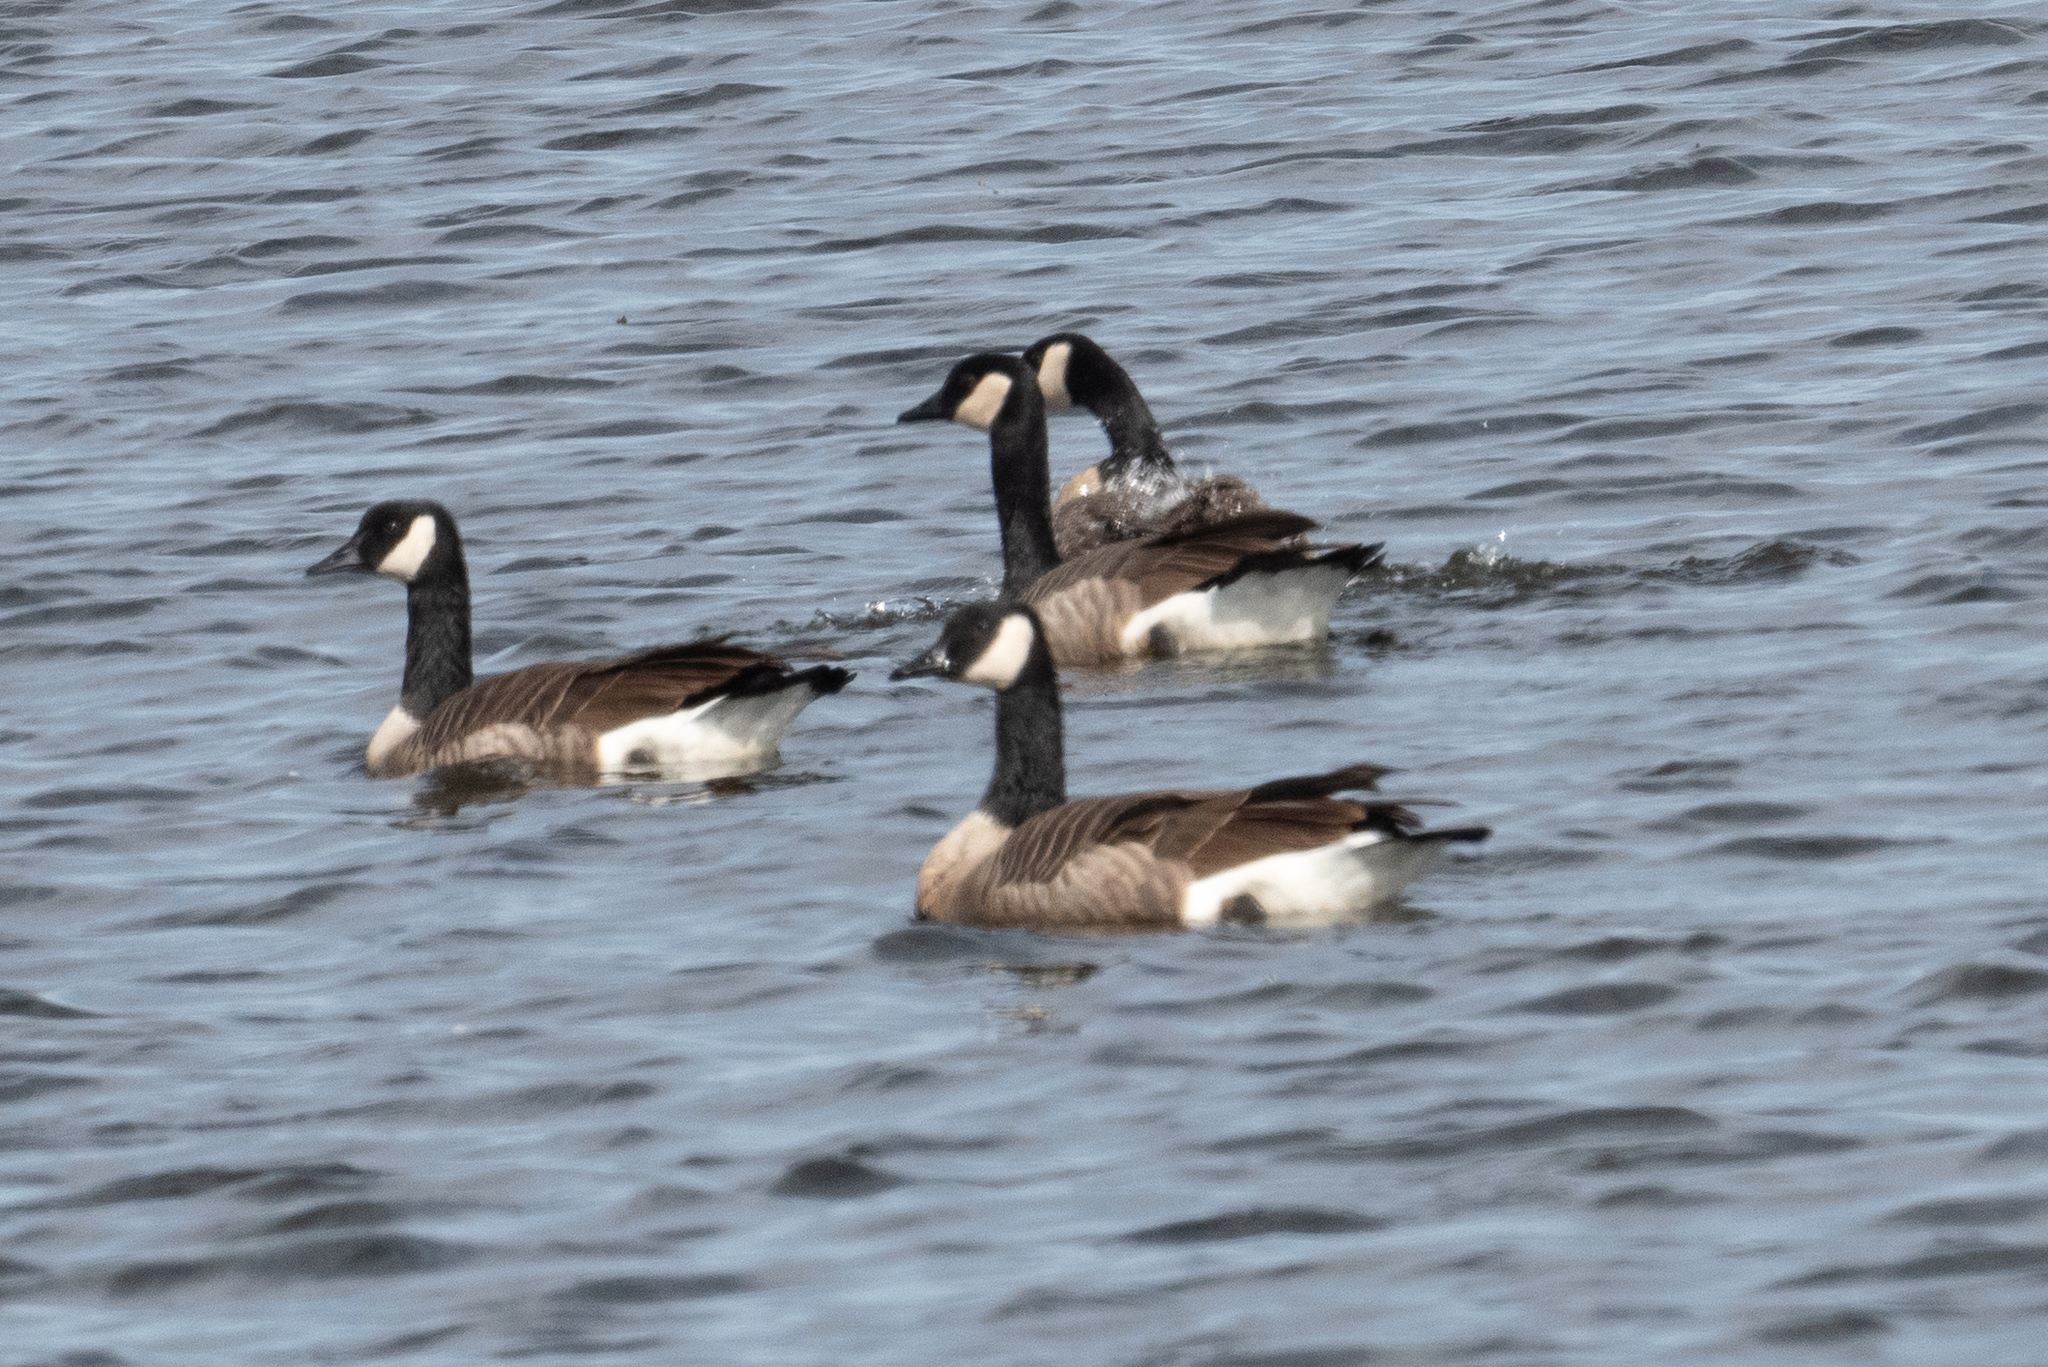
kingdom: Animalia
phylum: Chordata
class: Aves
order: Anseriformes
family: Anatidae
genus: Branta
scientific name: Branta canadensis
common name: Canada goose
